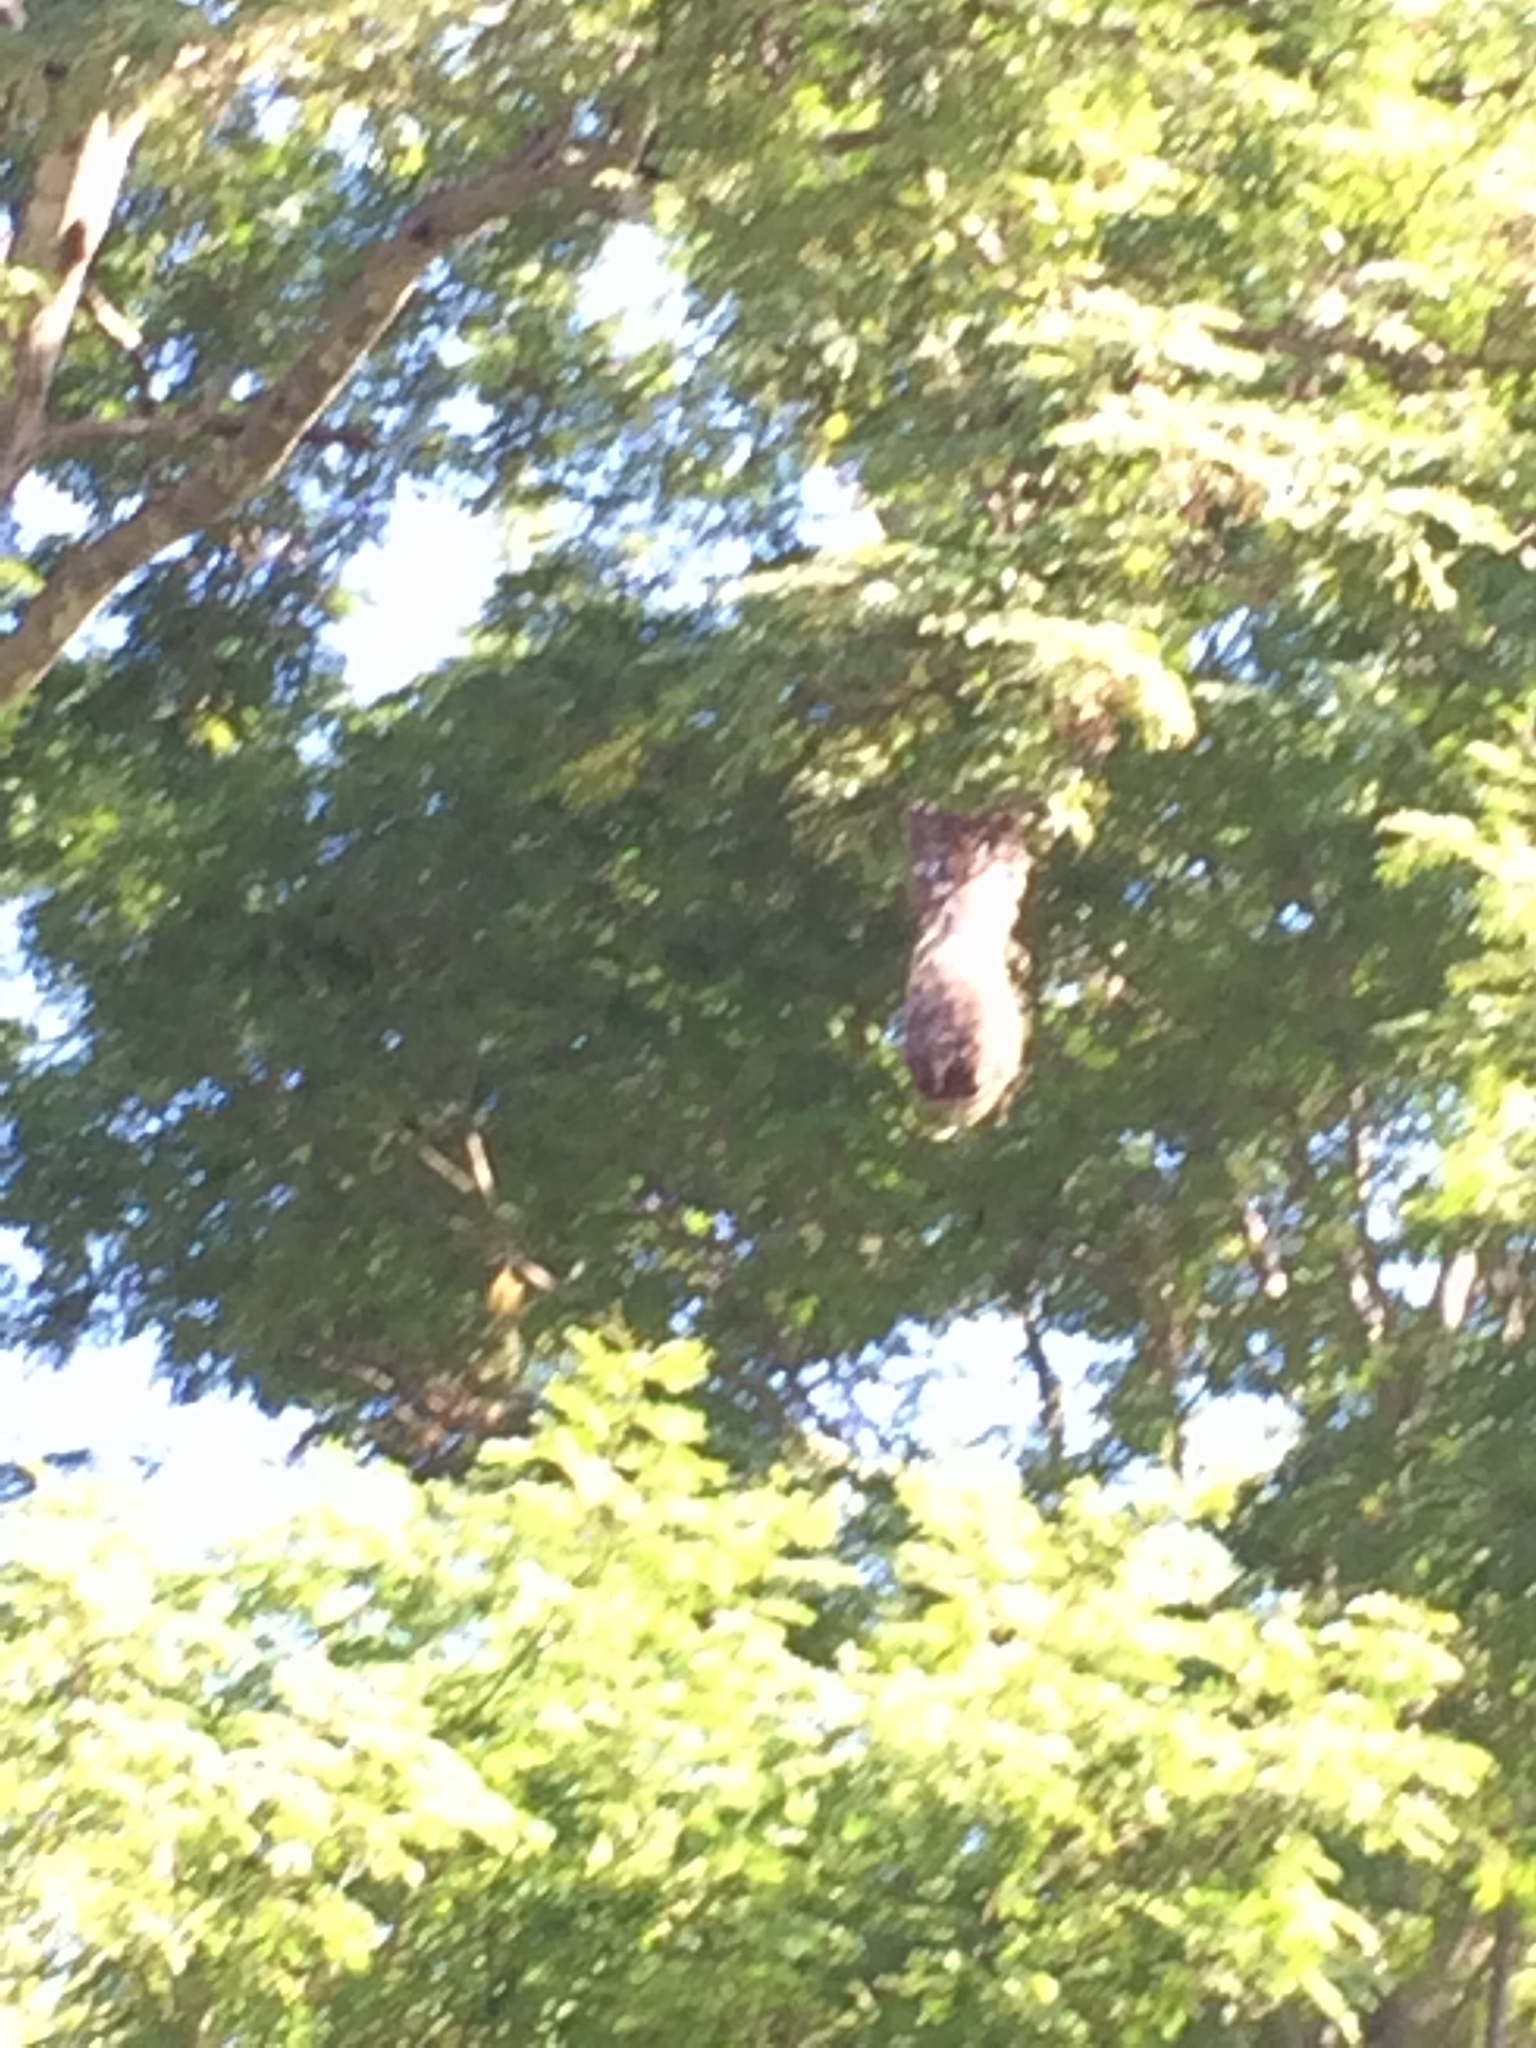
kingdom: Animalia
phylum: Chordata
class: Aves
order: Passeriformes
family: Icteridae
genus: Psarocolius
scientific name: Psarocolius montezuma
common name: Montezuma oropendola
